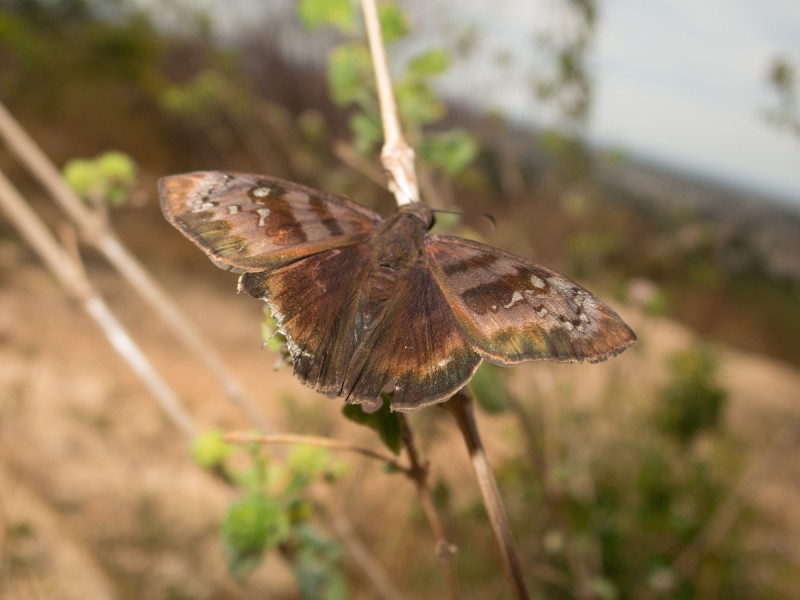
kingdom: Animalia
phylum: Arthropoda
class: Insecta
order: Lepidoptera
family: Hesperiidae
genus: Ephyriades
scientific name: Ephyriades brunnea
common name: Florida duskywing
